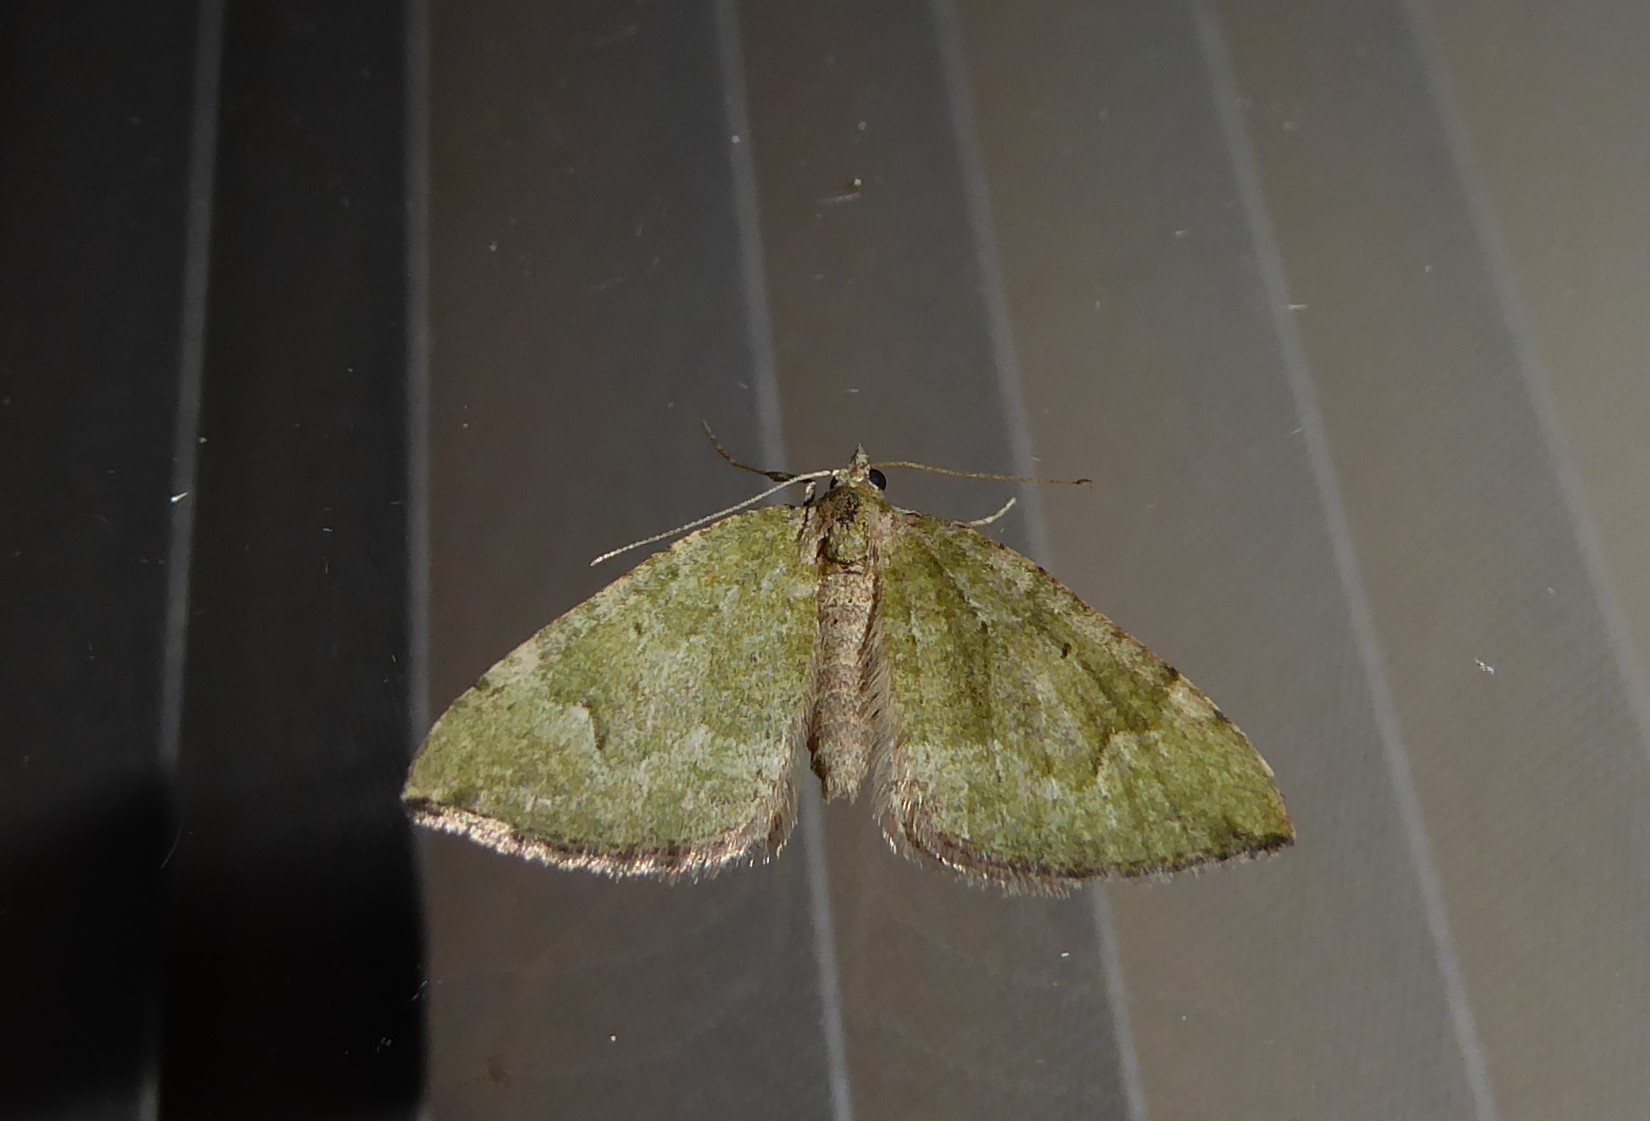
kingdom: Animalia
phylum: Arthropoda
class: Insecta
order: Lepidoptera
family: Geometridae
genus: Epyaxa
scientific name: Epyaxa rosearia
